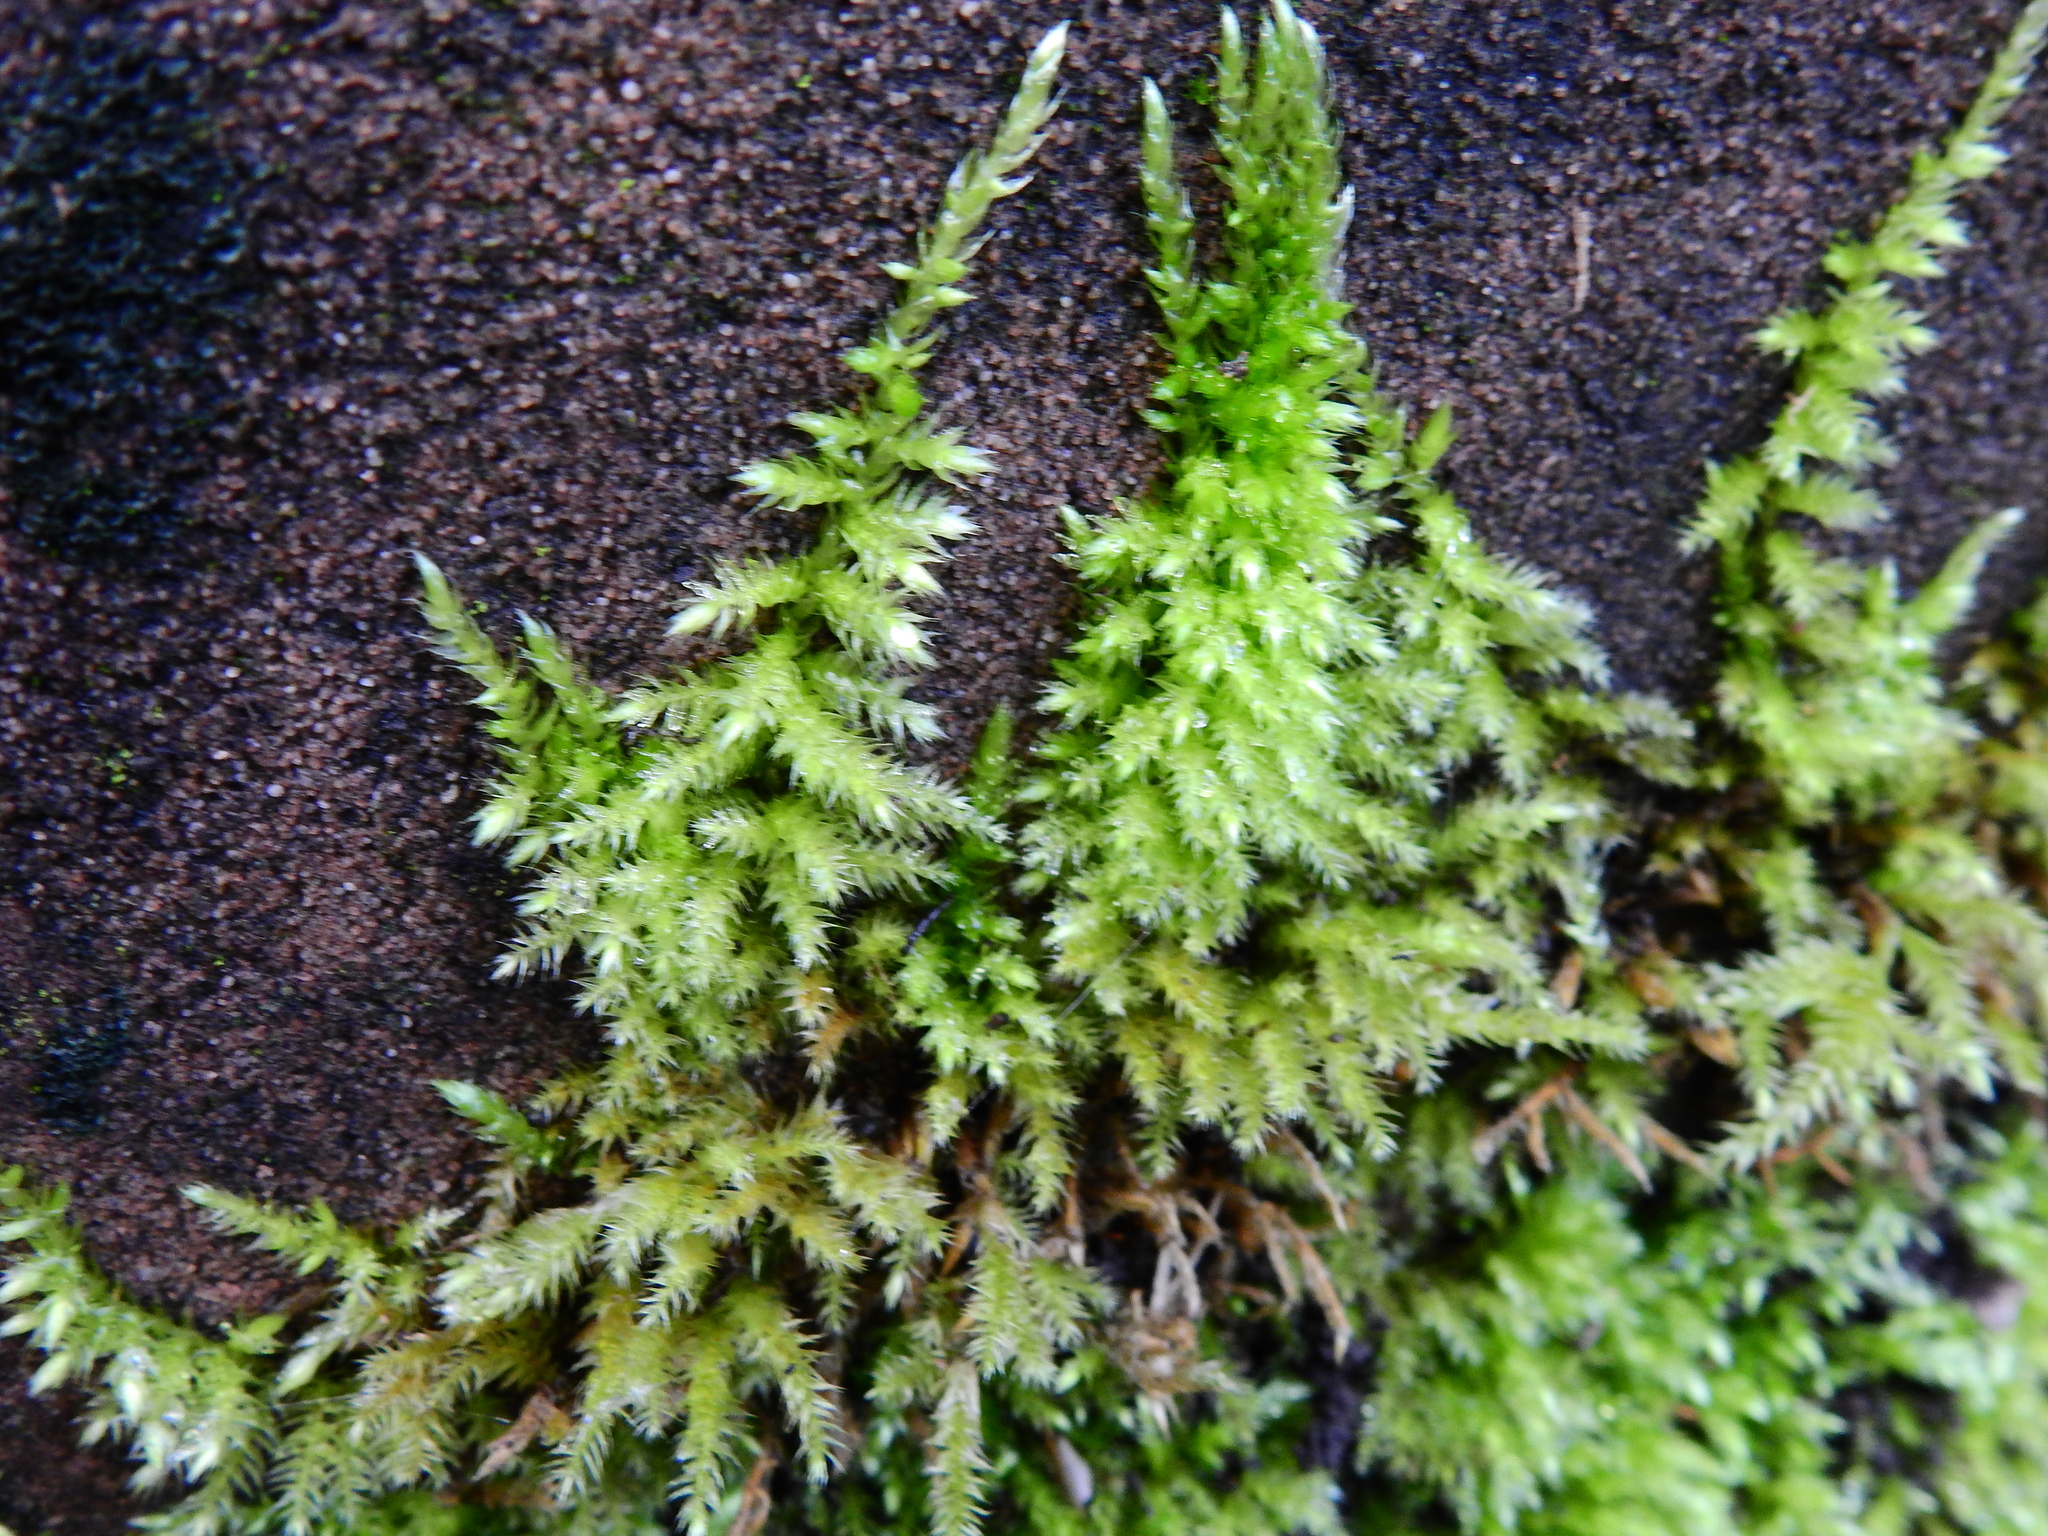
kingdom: Plantae
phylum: Bryophyta
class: Bryopsida
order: Hypnales
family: Brachytheciaceae
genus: Homalothecium
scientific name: Homalothecium sericeum
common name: Silky wall feather-moss
